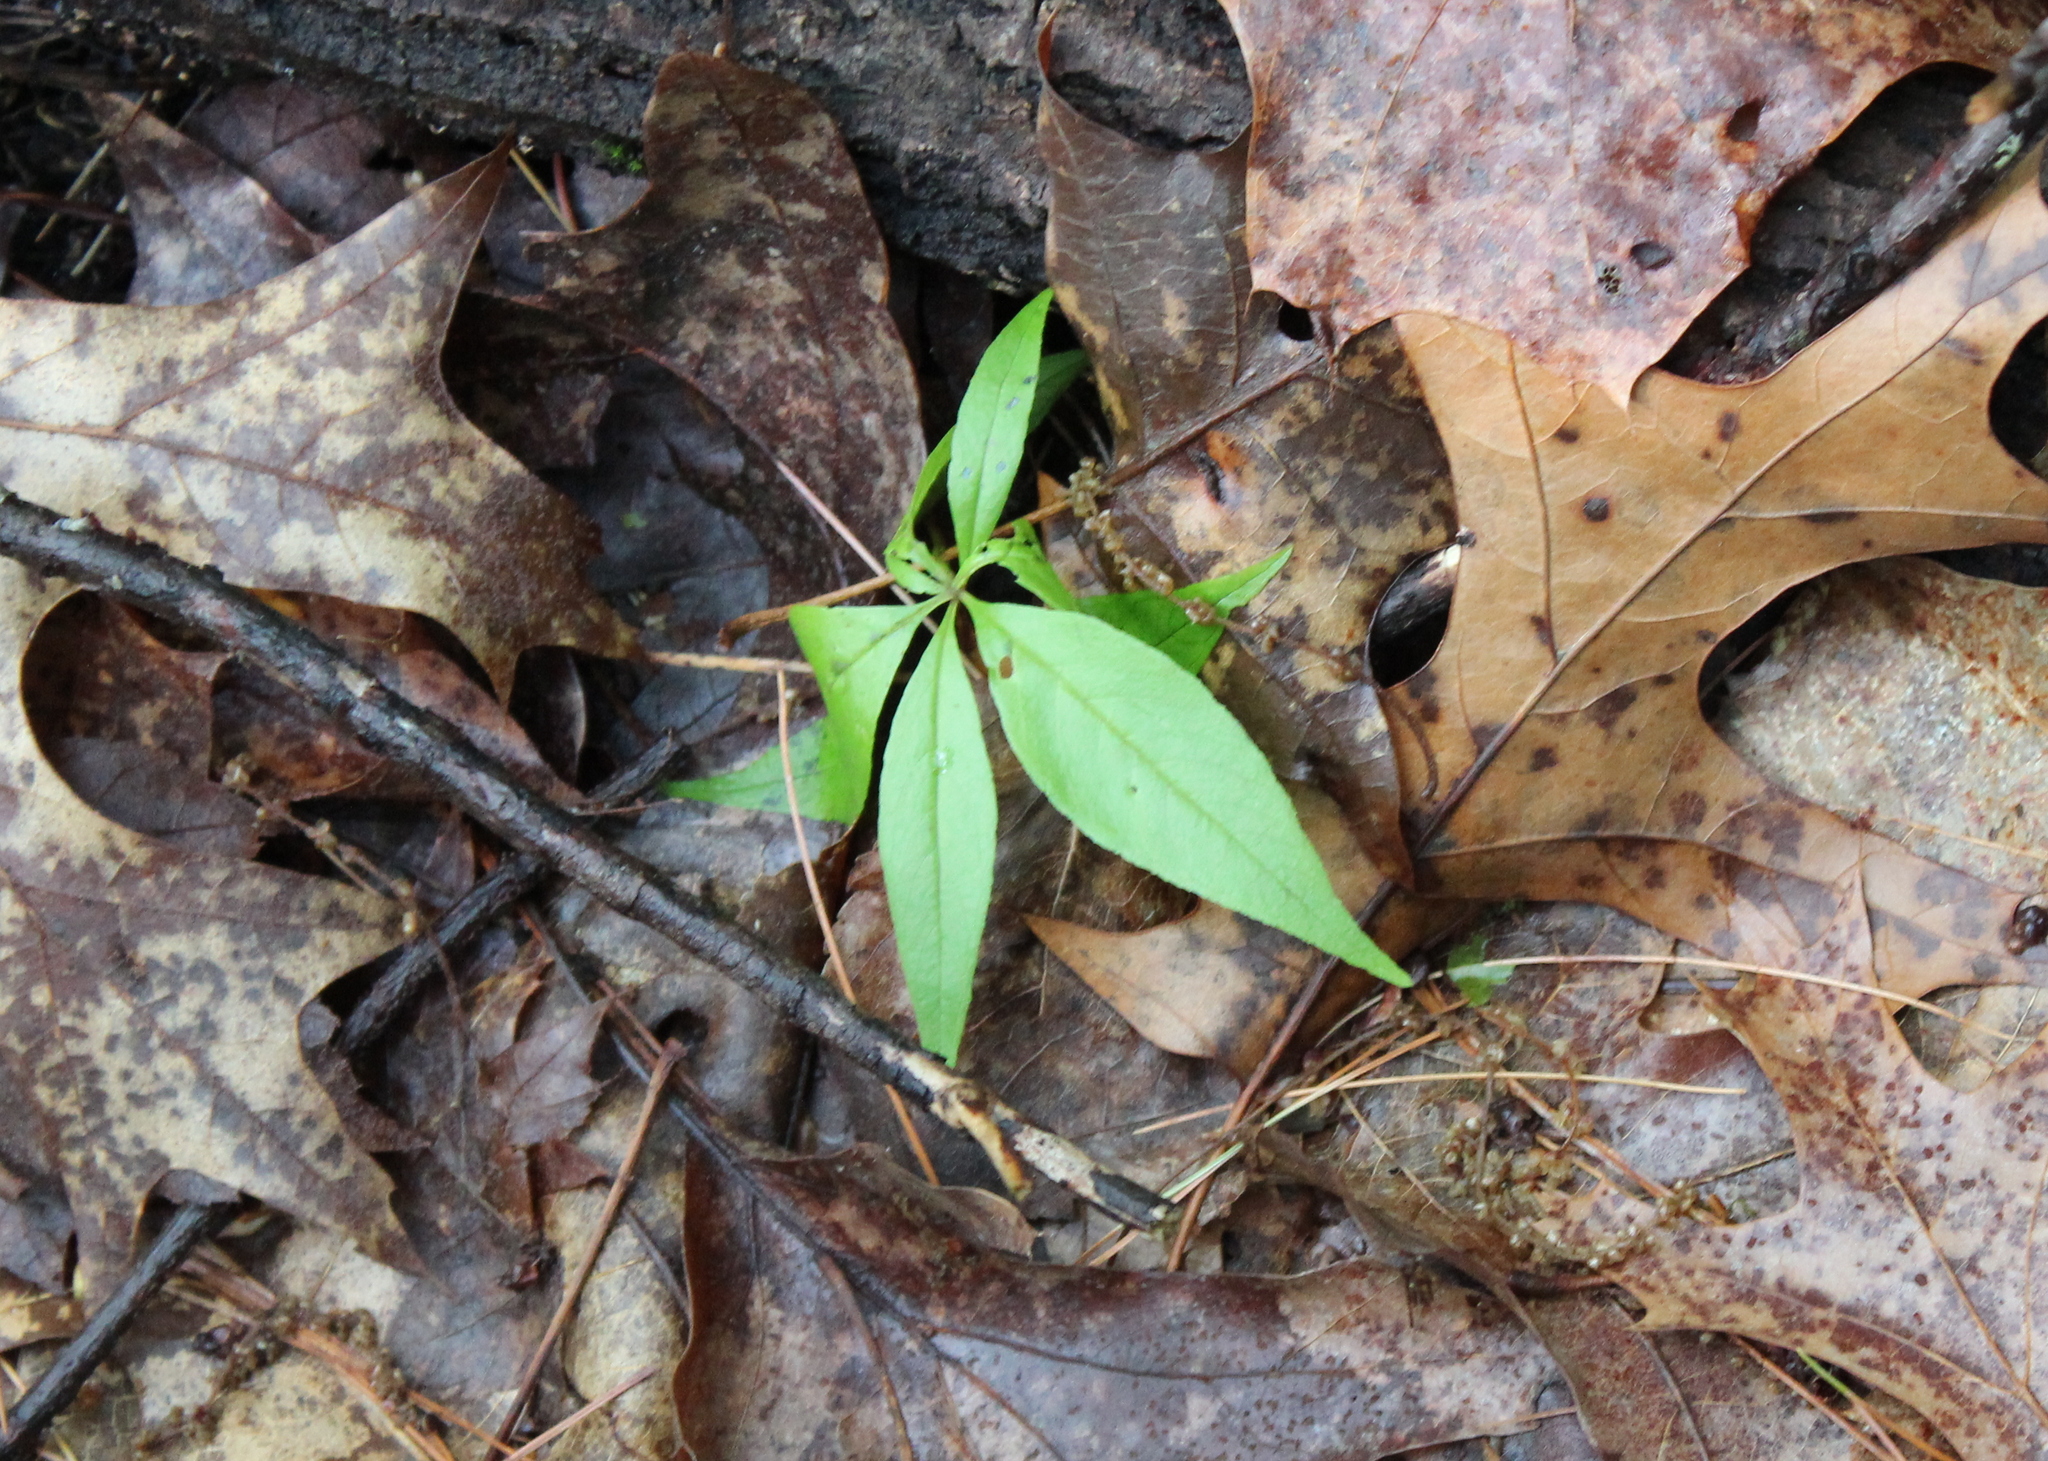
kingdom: Plantae
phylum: Tracheophyta
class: Magnoliopsida
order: Ericales
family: Primulaceae
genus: Lysimachia
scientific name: Lysimachia borealis
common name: American starflower
